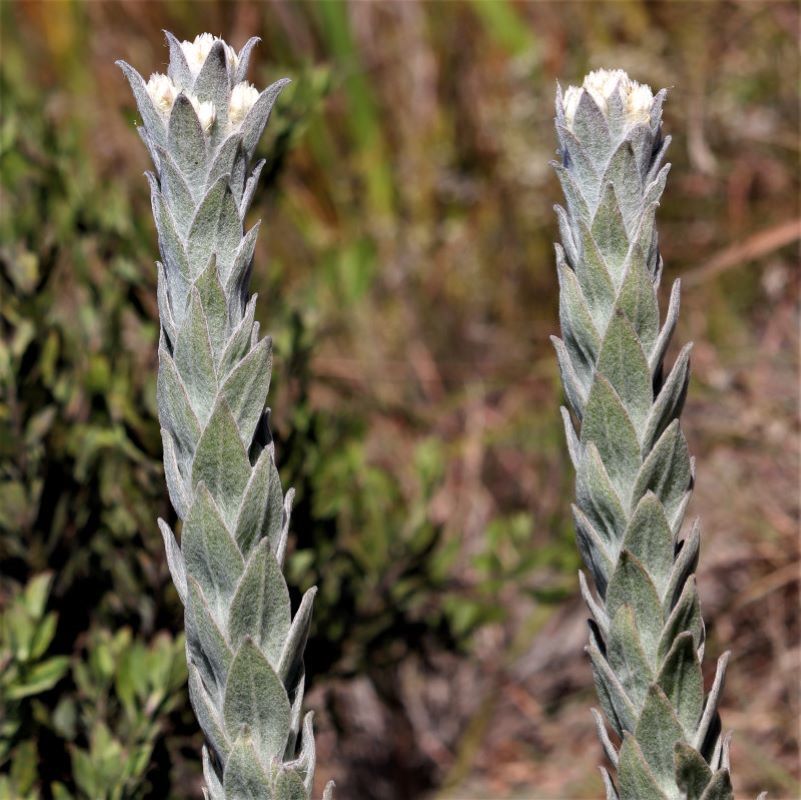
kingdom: Plantae
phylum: Tracheophyta
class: Magnoliopsida
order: Asterales
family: Asteraceae
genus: Syncarpha
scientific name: Syncarpha milleflora
